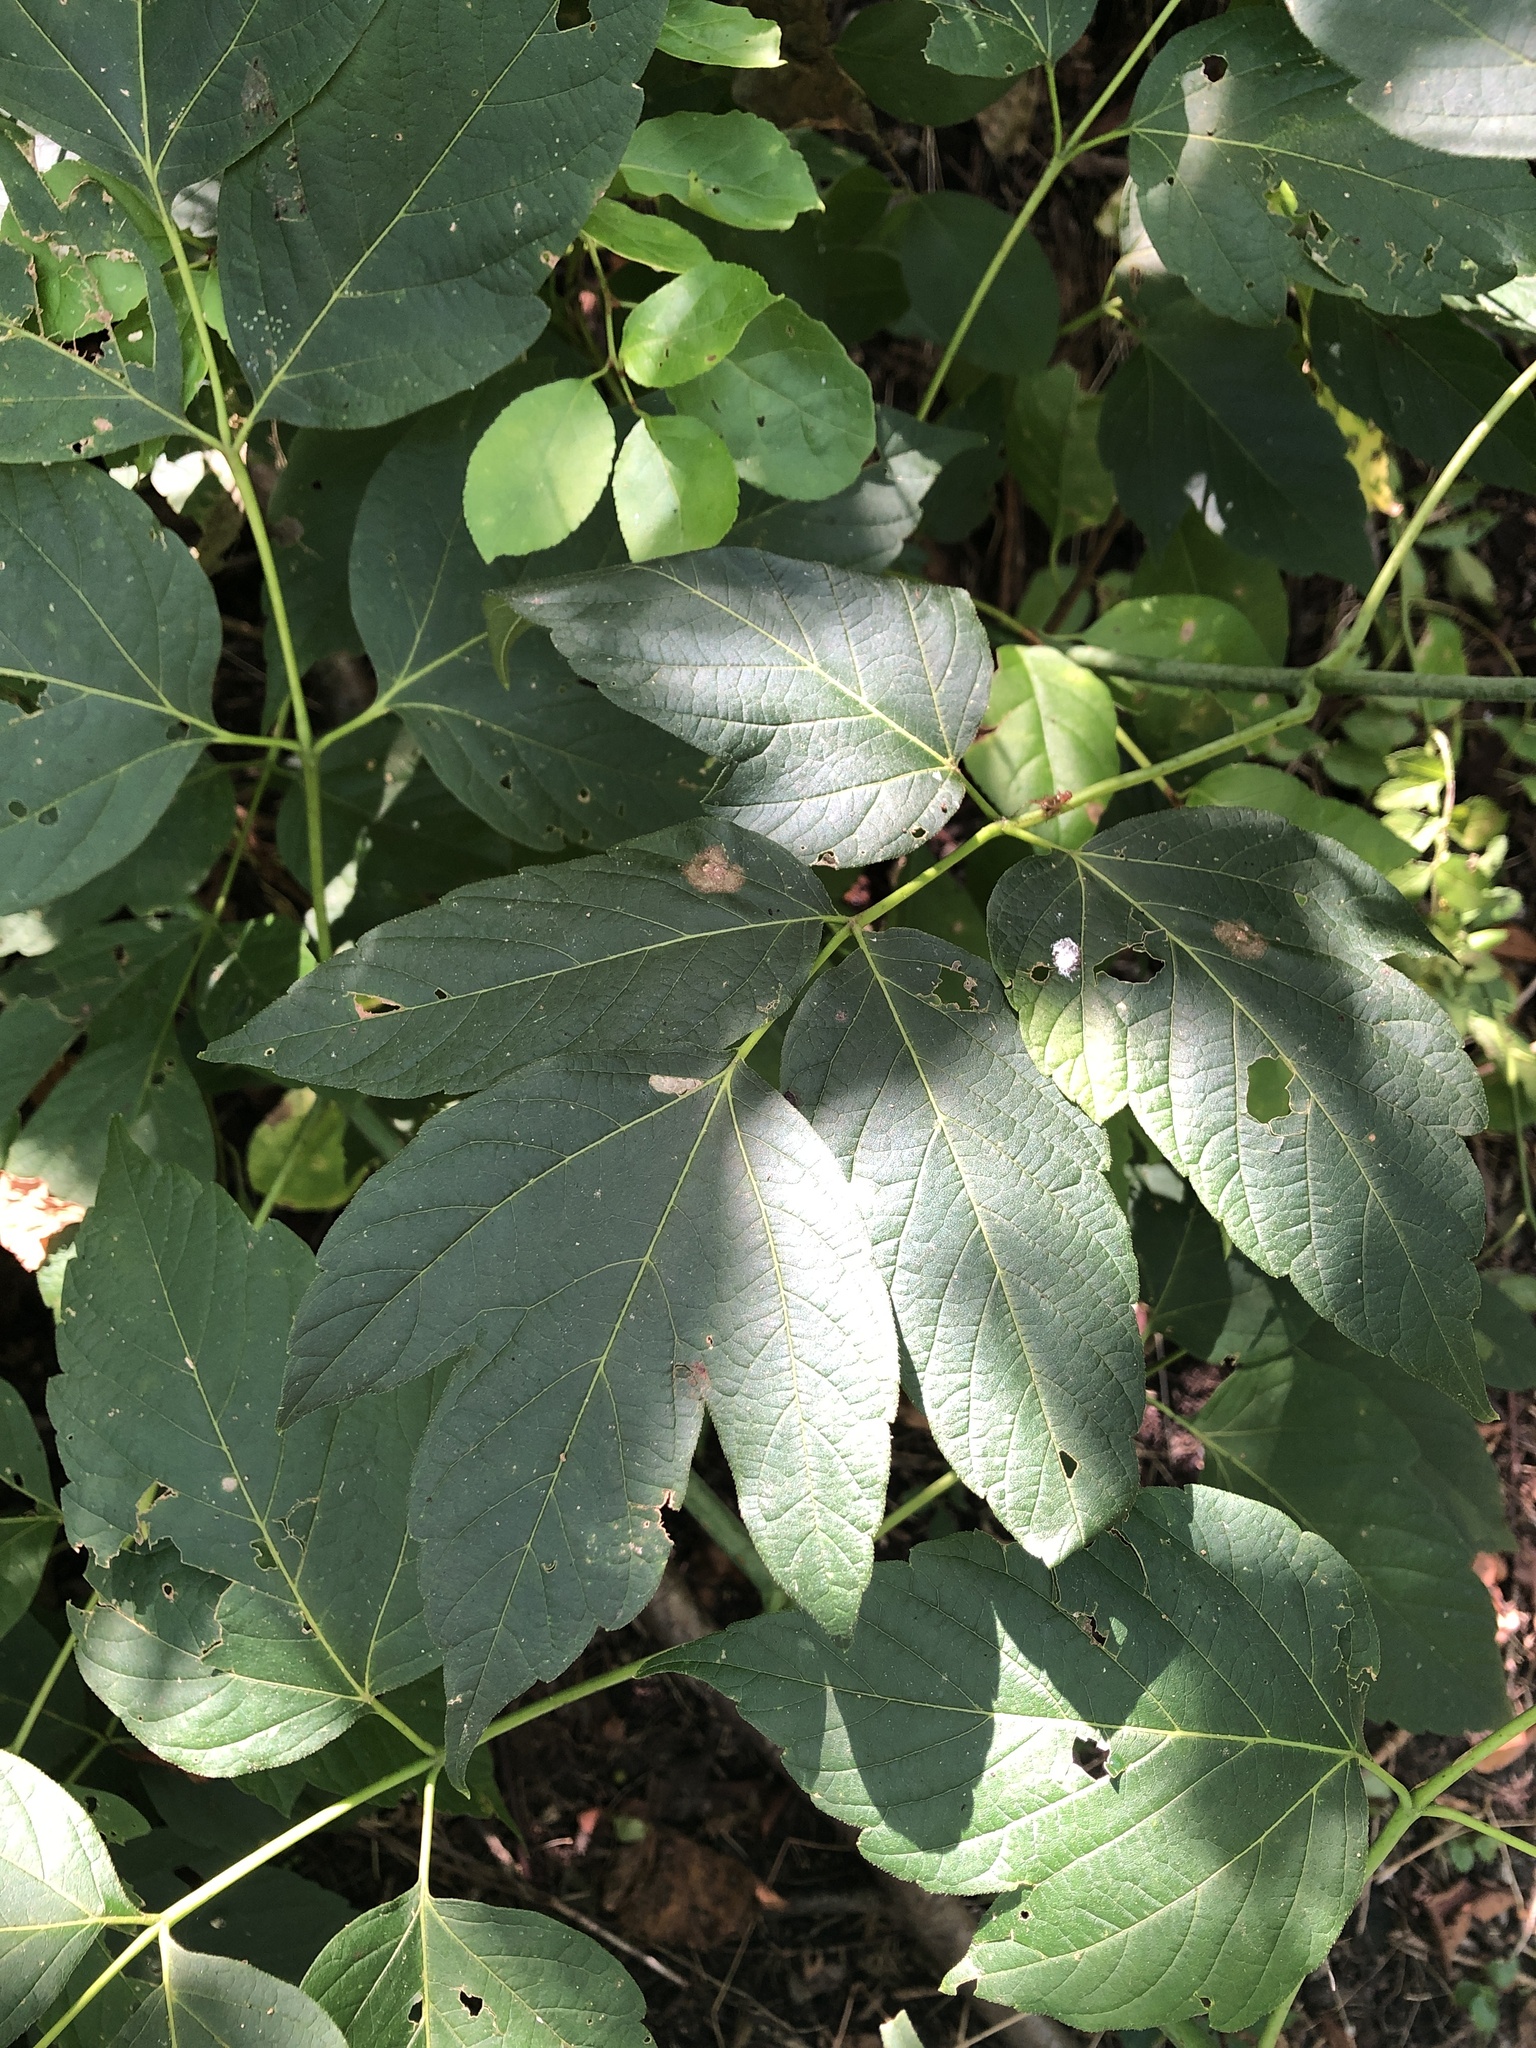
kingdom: Plantae
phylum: Tracheophyta
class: Magnoliopsida
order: Sapindales
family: Sapindaceae
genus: Acer
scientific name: Acer negundo
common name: Ashleaf maple
